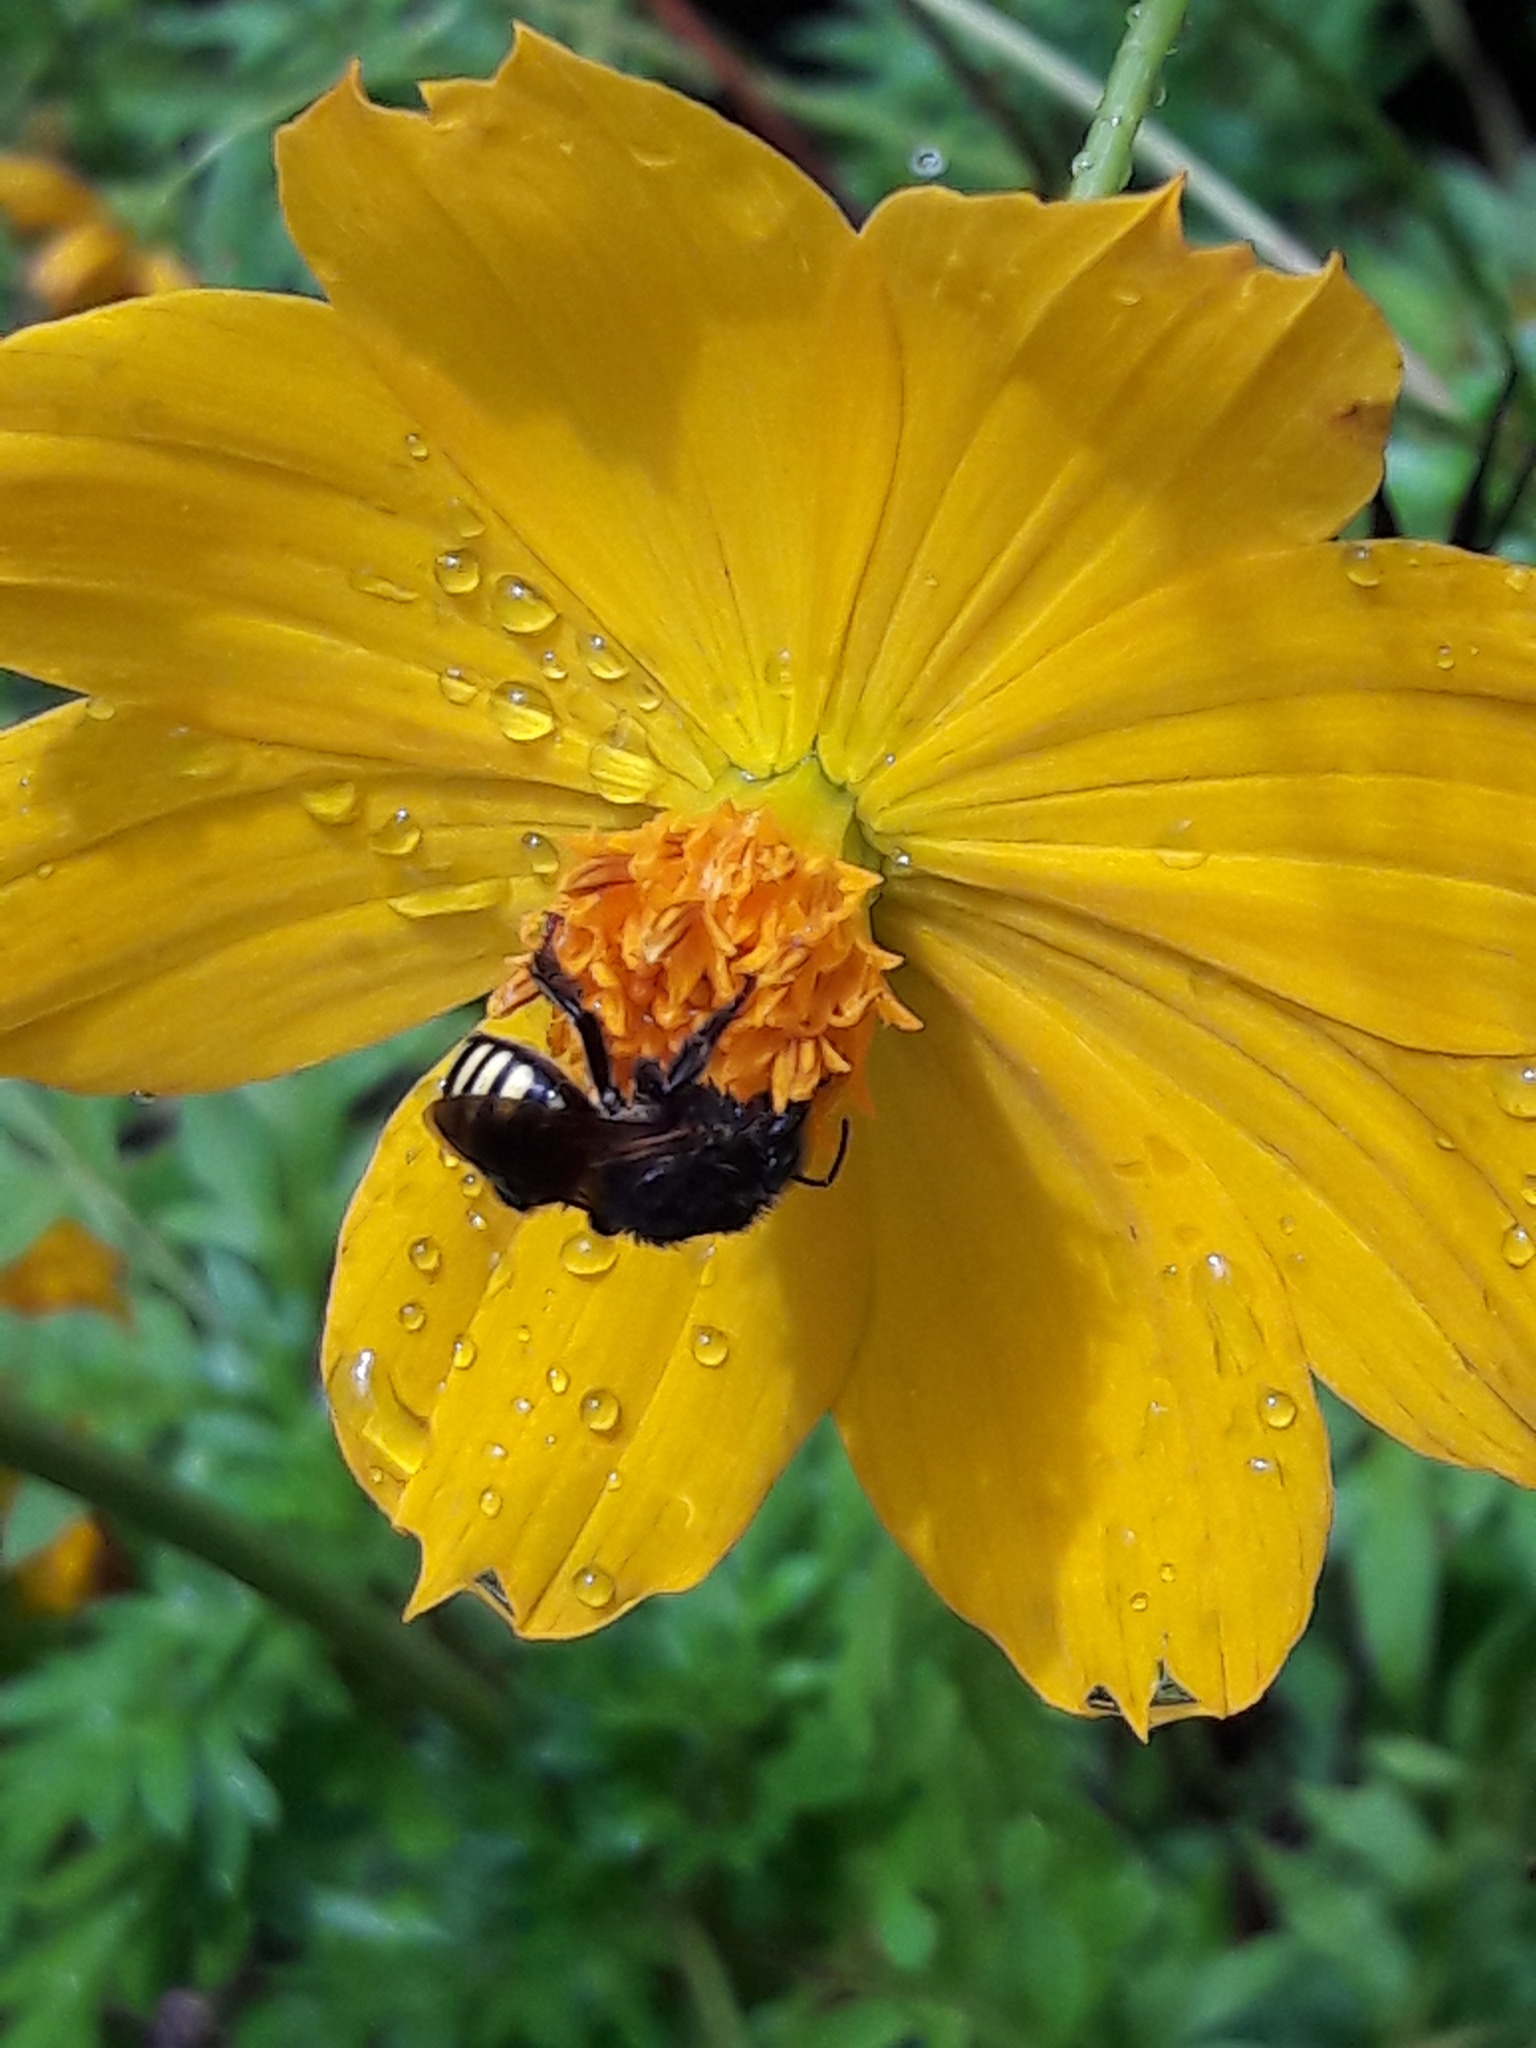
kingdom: Animalia
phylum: Arthropoda
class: Insecta
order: Hymenoptera
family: Apidae
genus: Melipona
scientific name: Melipona quadrifasciata
